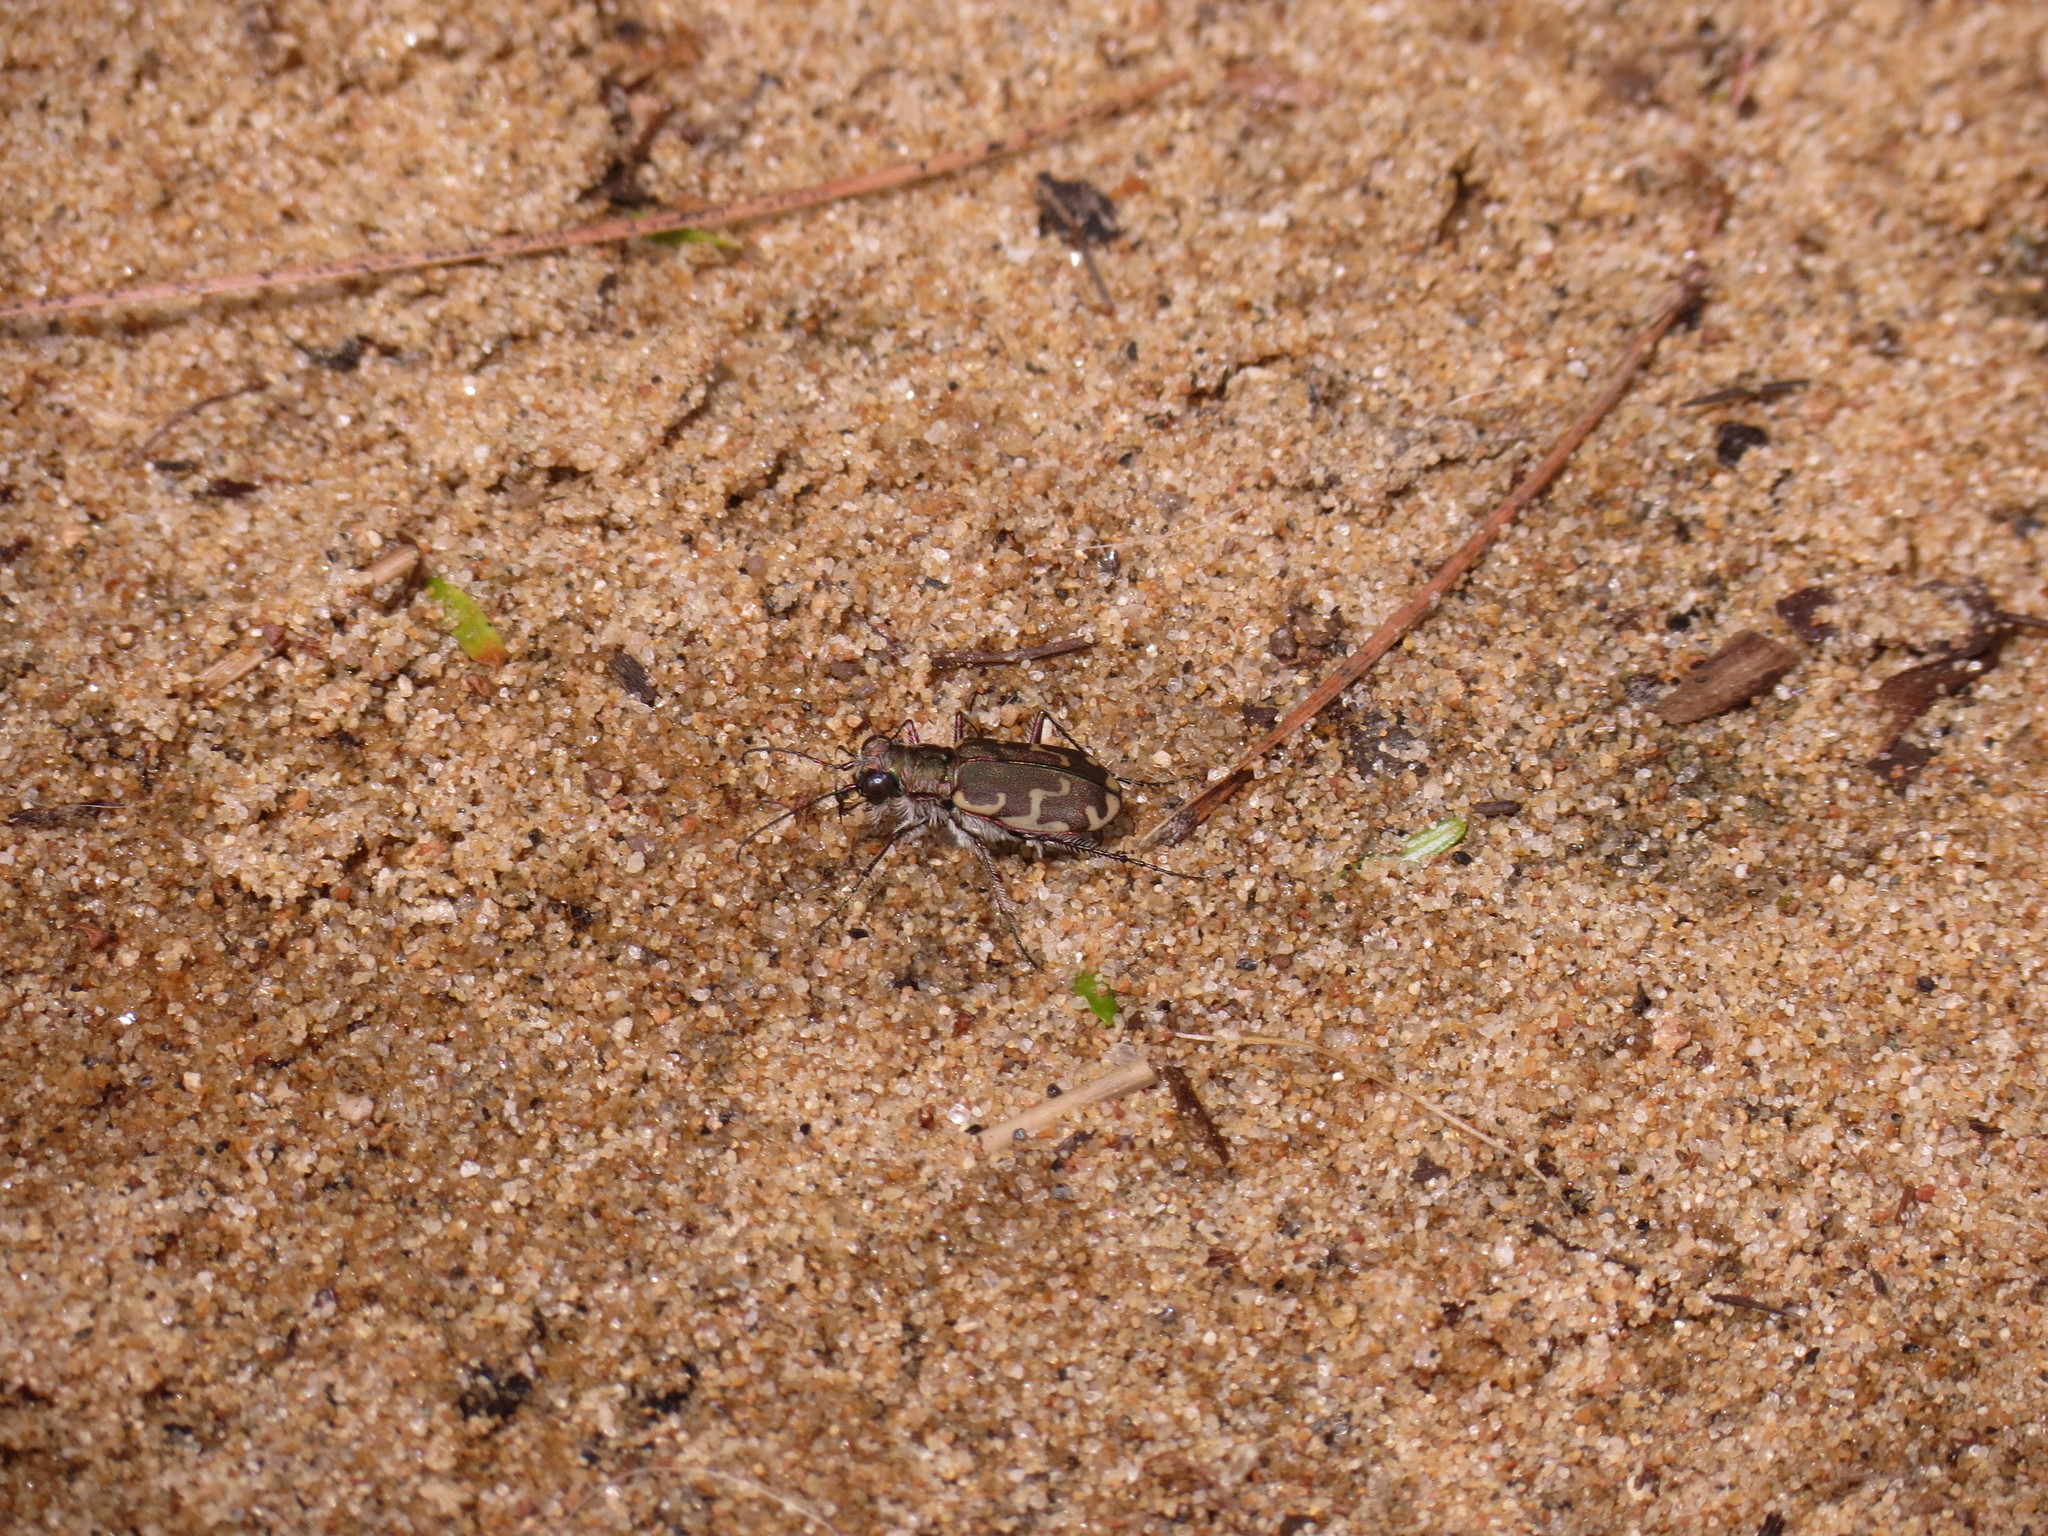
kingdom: Animalia
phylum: Arthropoda
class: Insecta
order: Coleoptera
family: Carabidae
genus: Cicindela
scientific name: Cicindela repanda
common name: Bronzed tiger beetle
